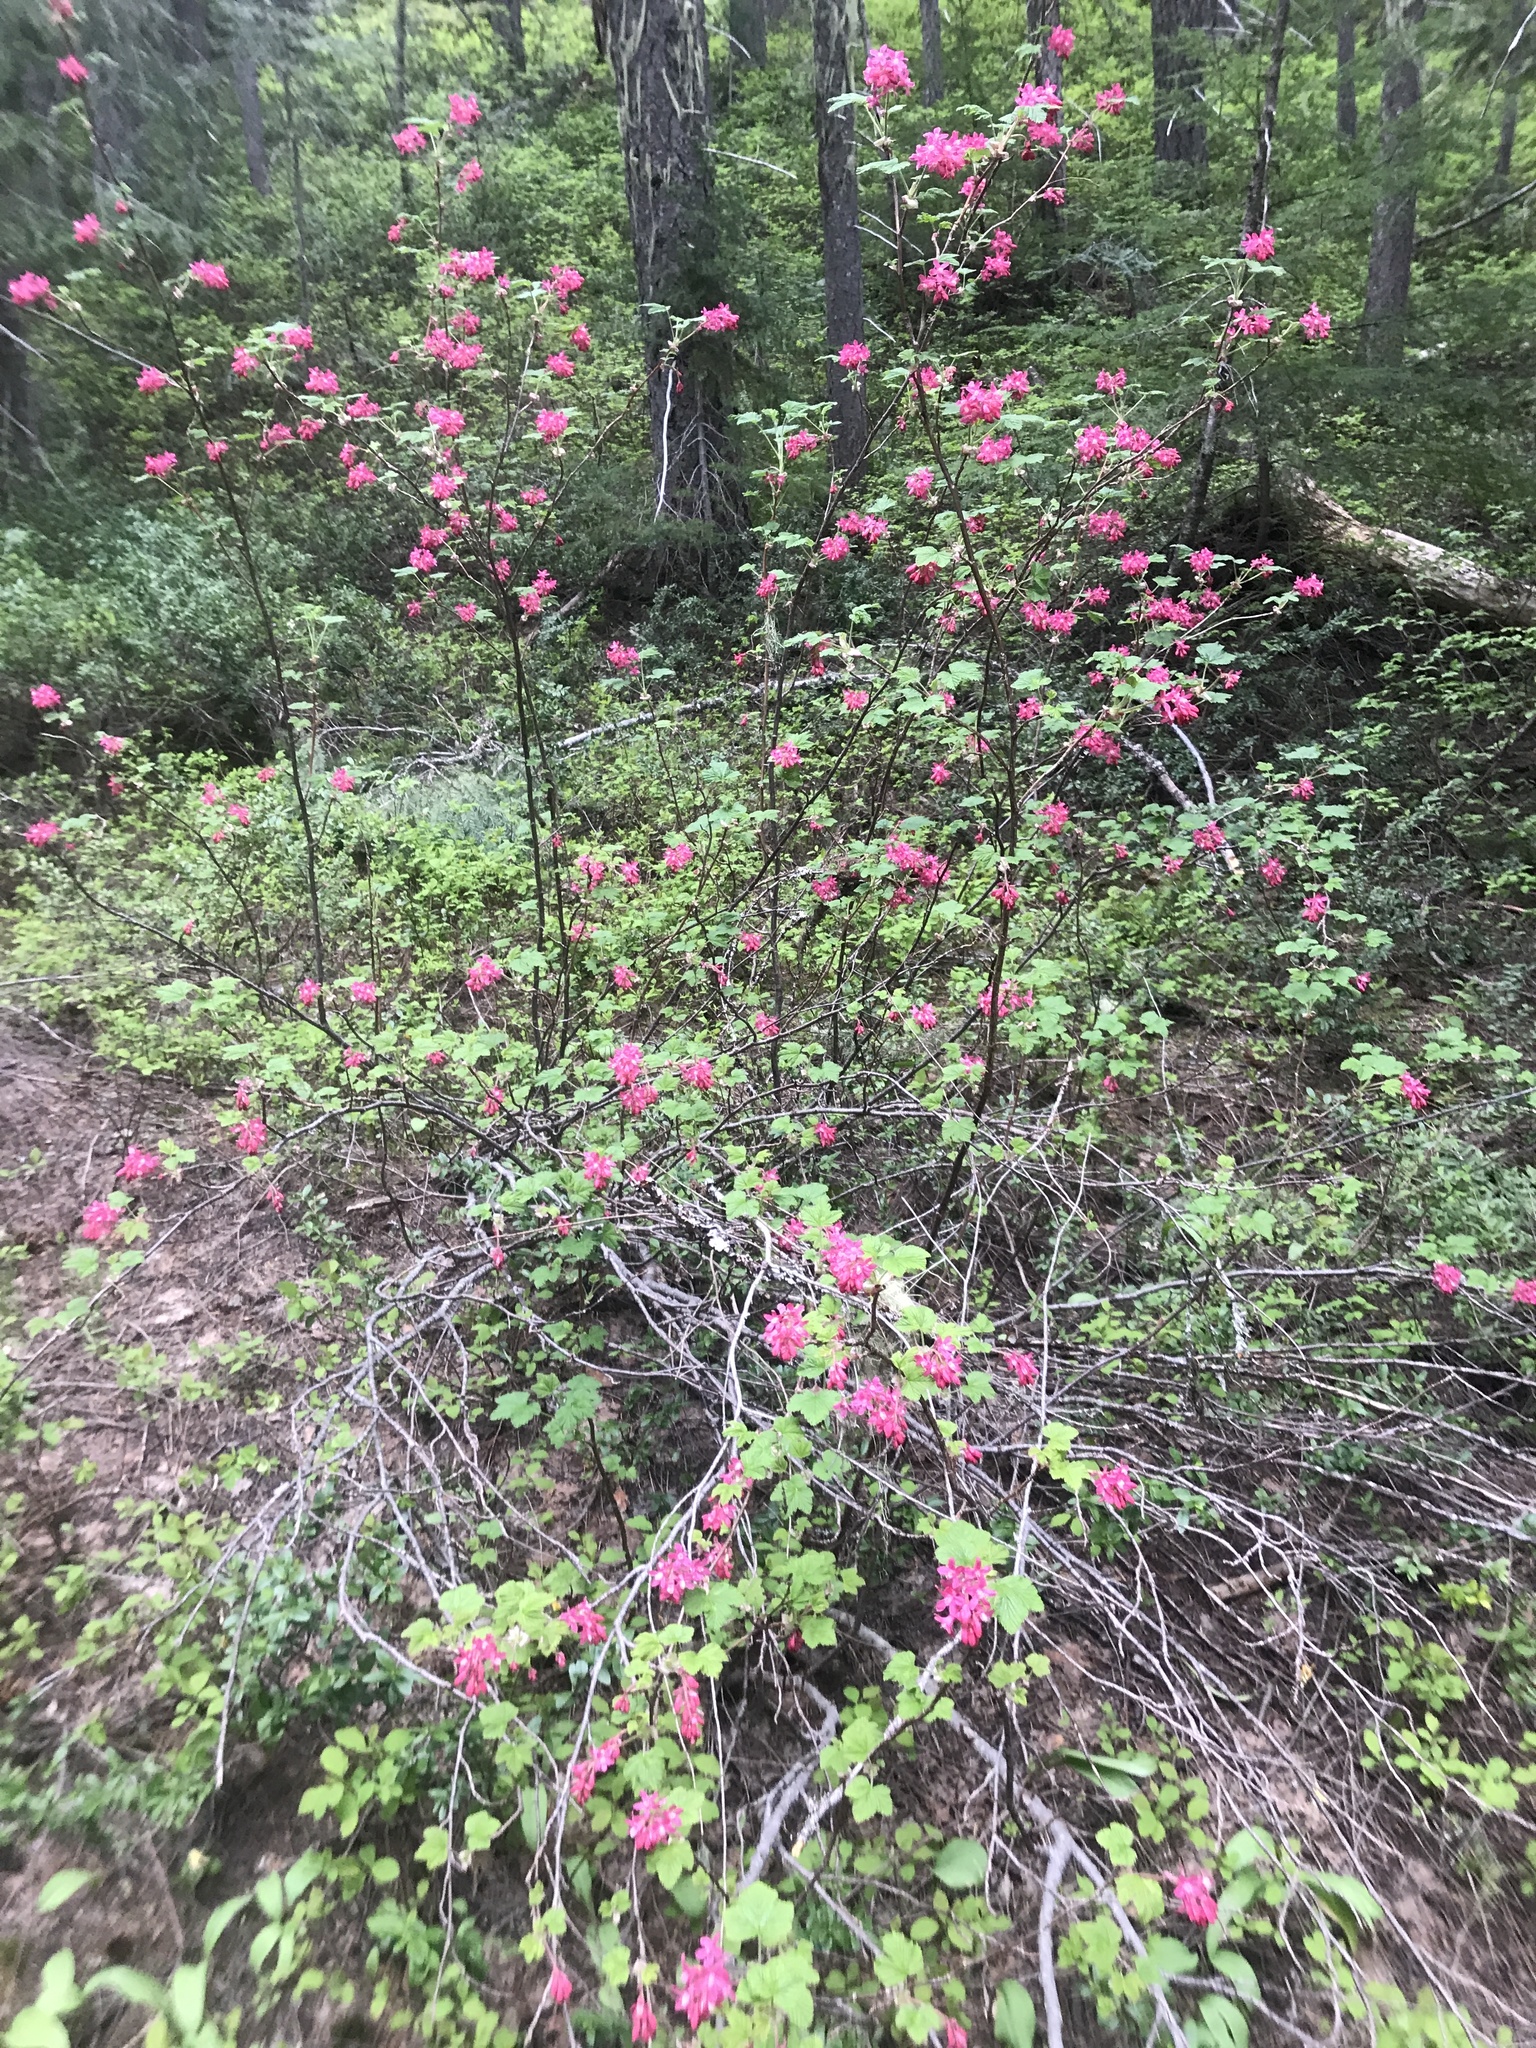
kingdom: Plantae
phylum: Tracheophyta
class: Magnoliopsida
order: Saxifragales
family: Grossulariaceae
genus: Ribes
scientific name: Ribes sanguineum
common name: Flowering currant
